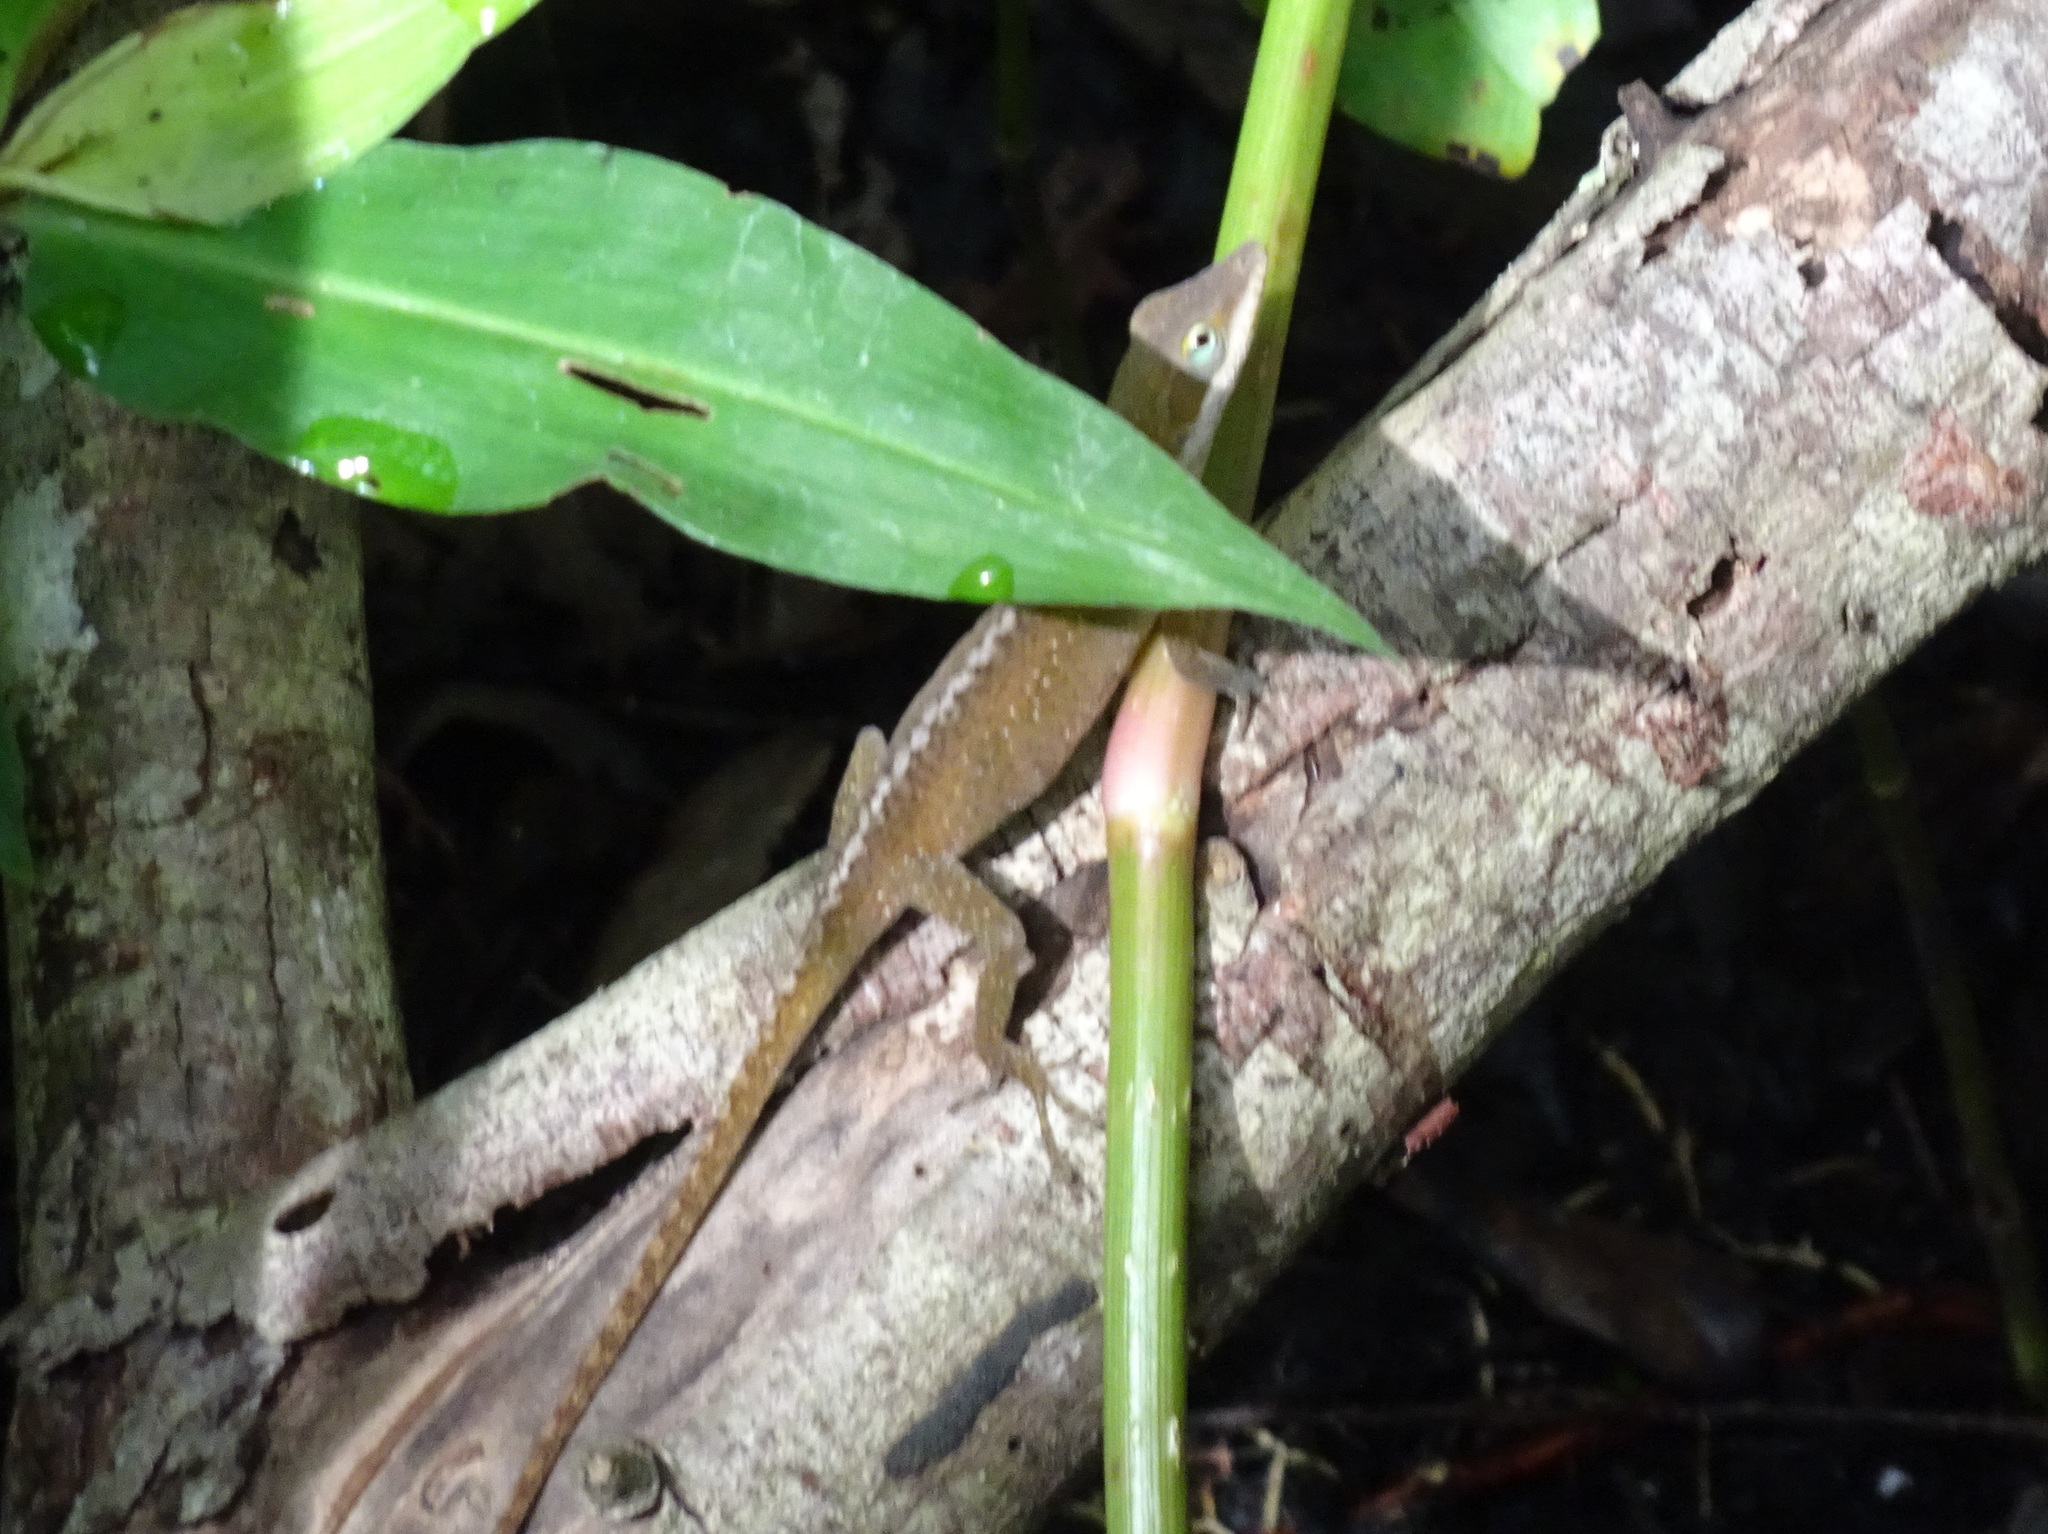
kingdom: Animalia
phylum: Chordata
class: Squamata
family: Dactyloidae
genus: Anolis
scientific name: Anolis carolinensis
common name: Green anole
